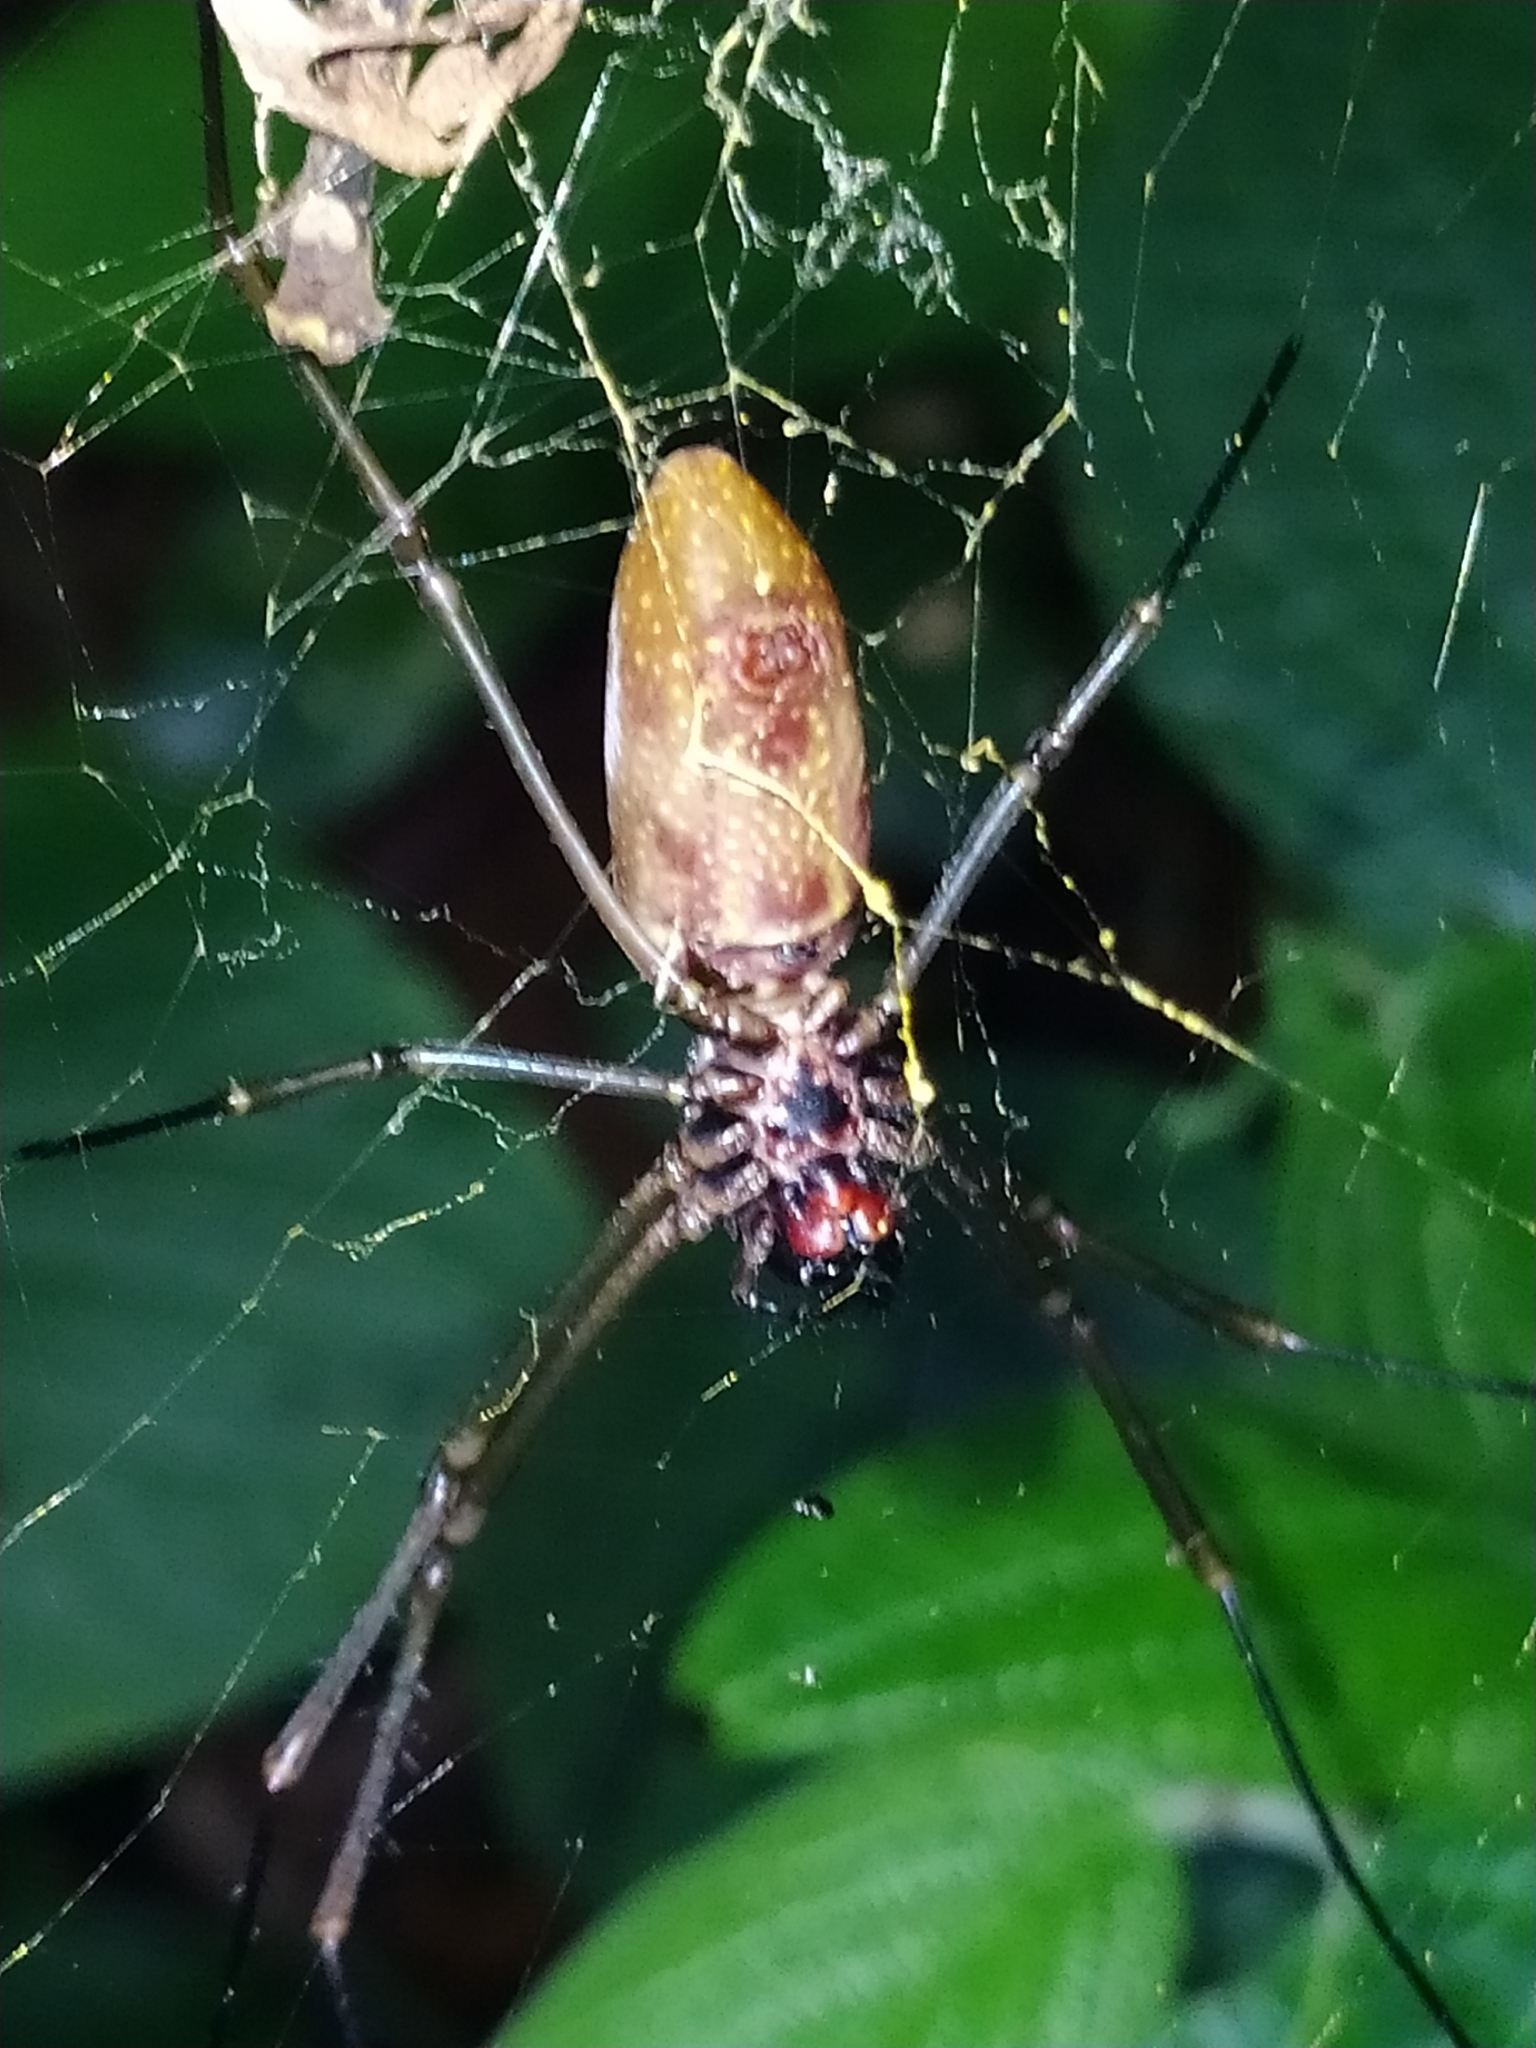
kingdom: Animalia
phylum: Arthropoda
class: Arachnida
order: Araneae
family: Araneidae
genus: Nephila
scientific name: Nephila cornuta
